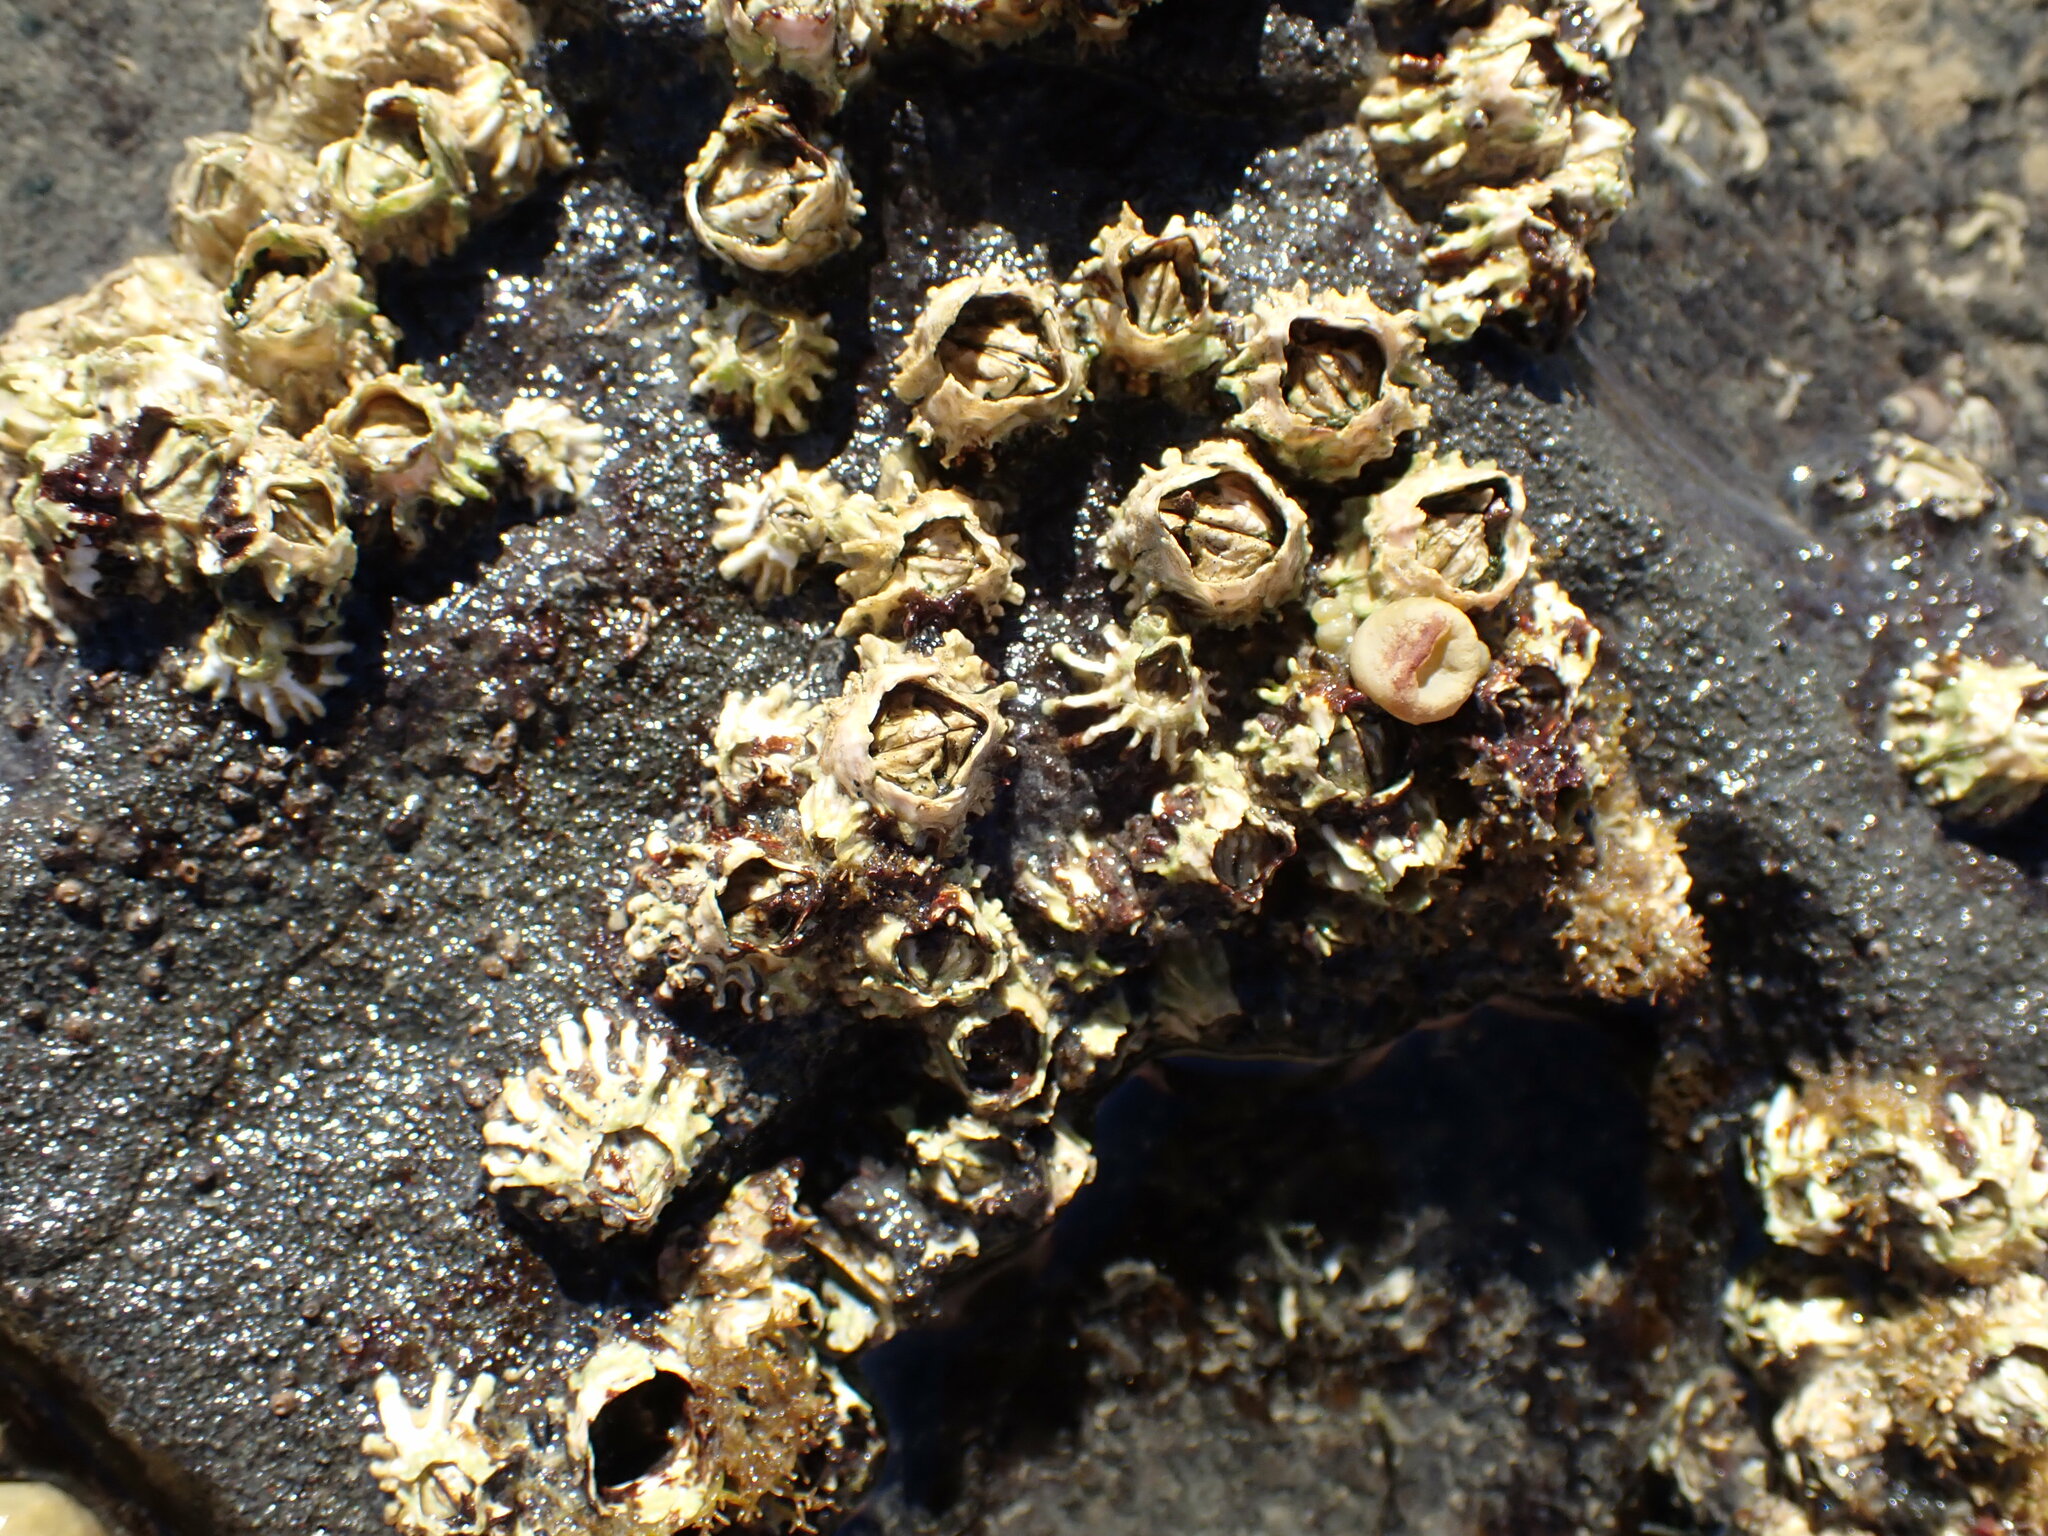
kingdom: Animalia
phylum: Arthropoda
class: Maxillopoda
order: Sessilia
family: Tetraclitidae
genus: Epopella
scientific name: Epopella plicata
